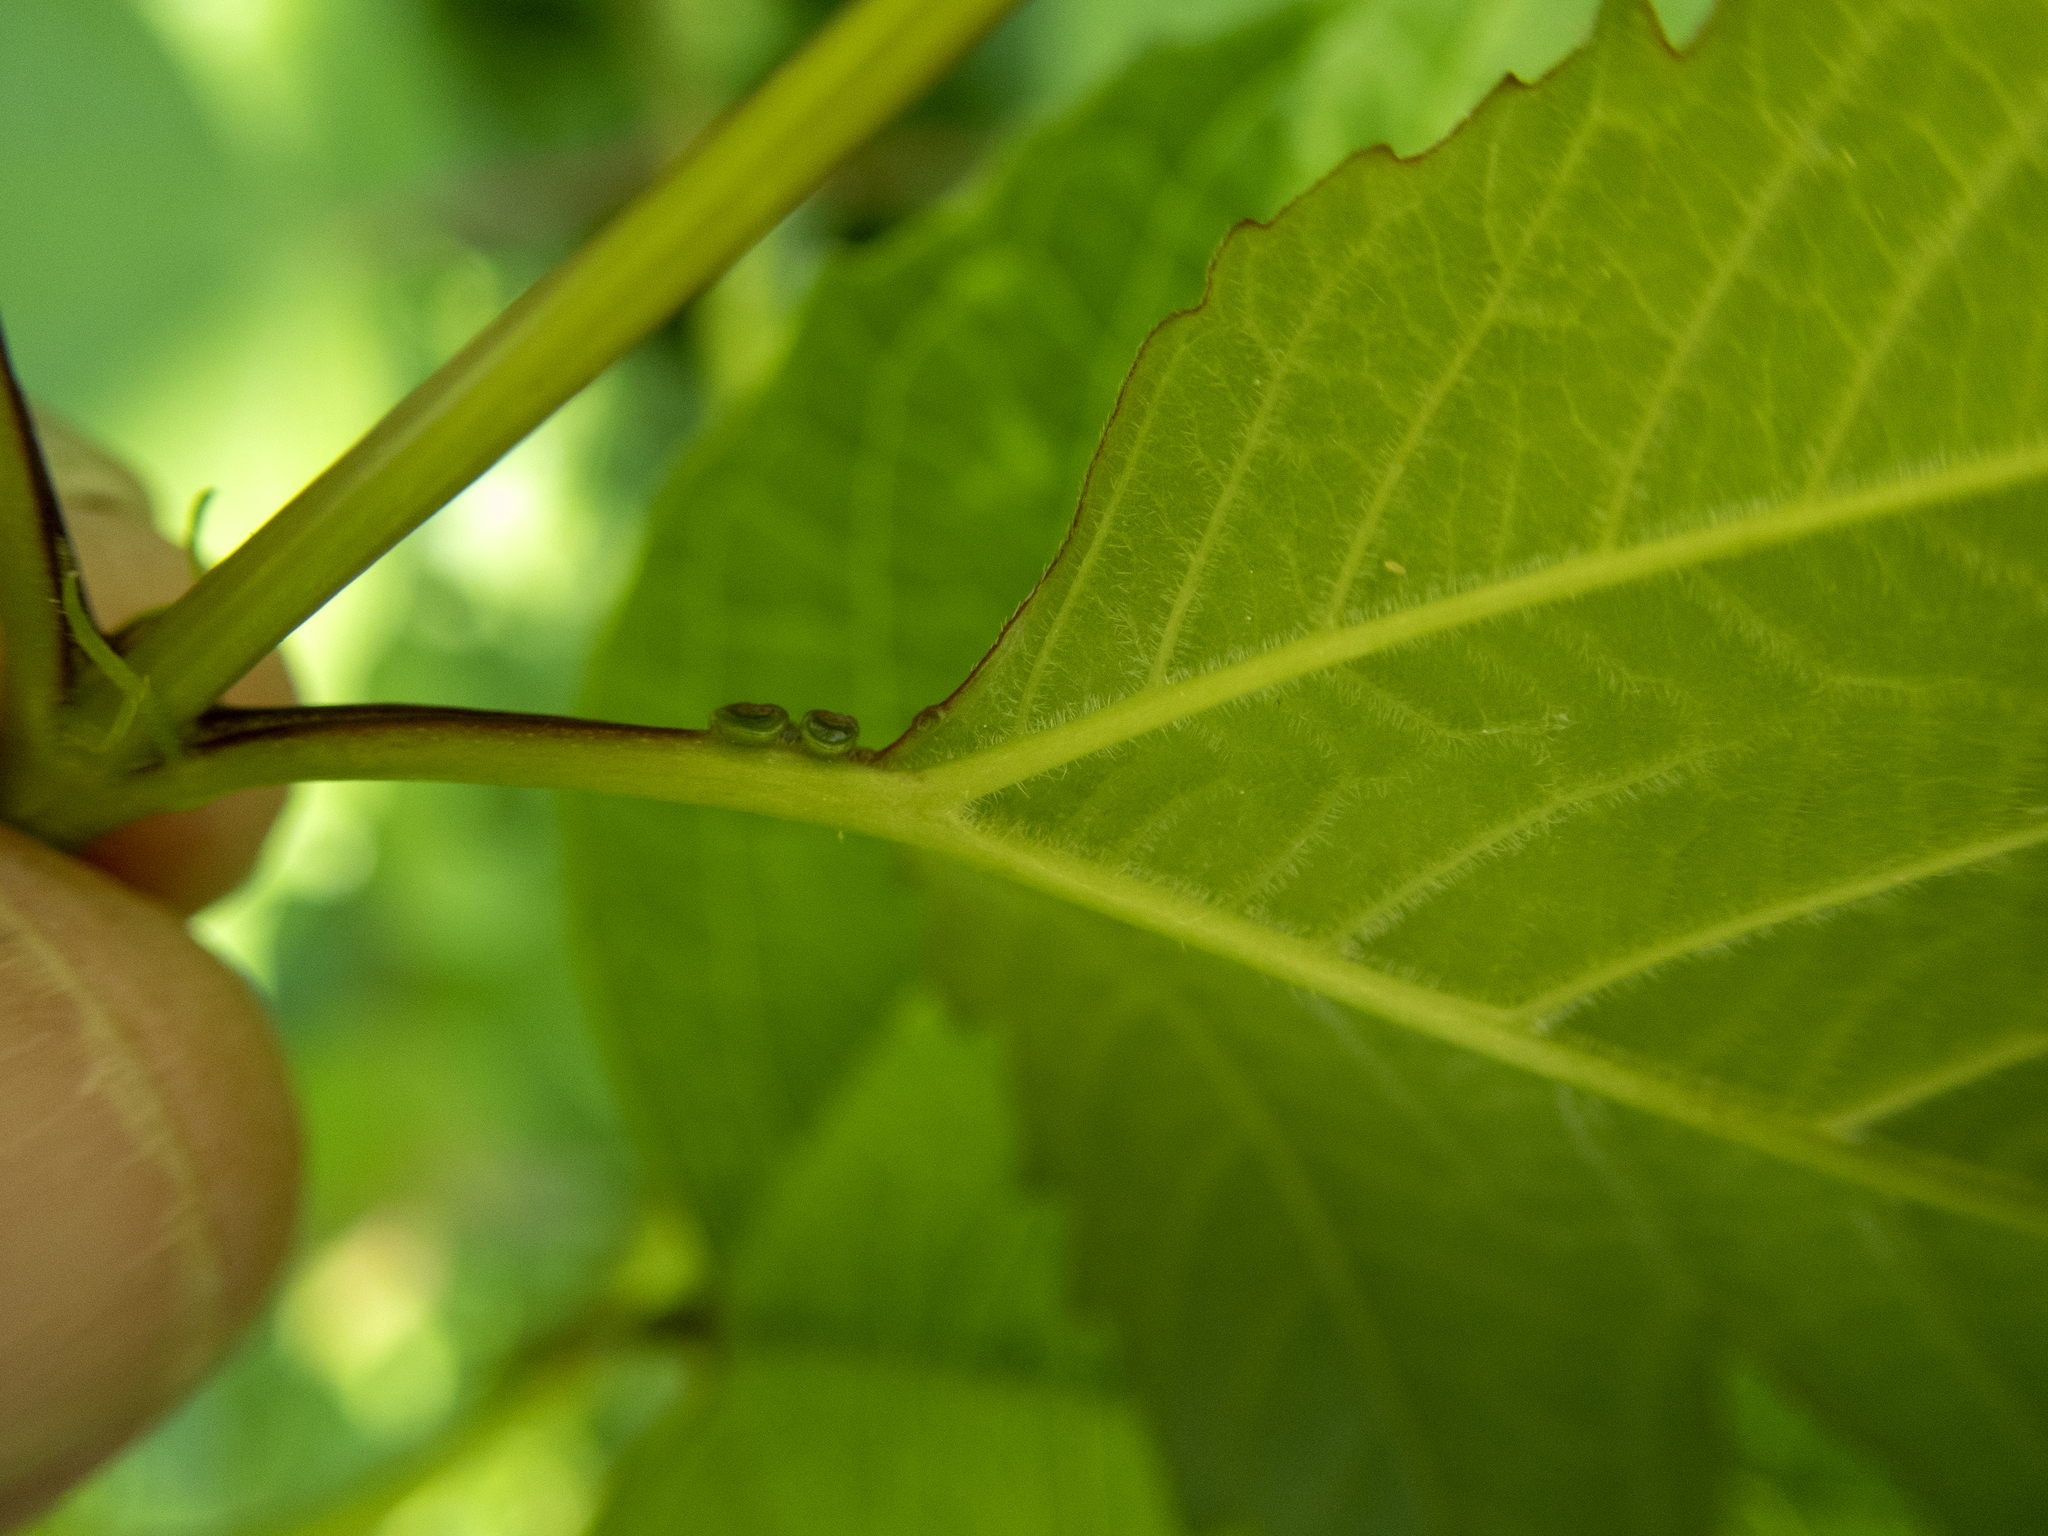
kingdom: Plantae
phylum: Tracheophyta
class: Magnoliopsida
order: Dipsacales
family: Viburnaceae
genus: Viburnum
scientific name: Viburnum opulus
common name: Guelder-rose
